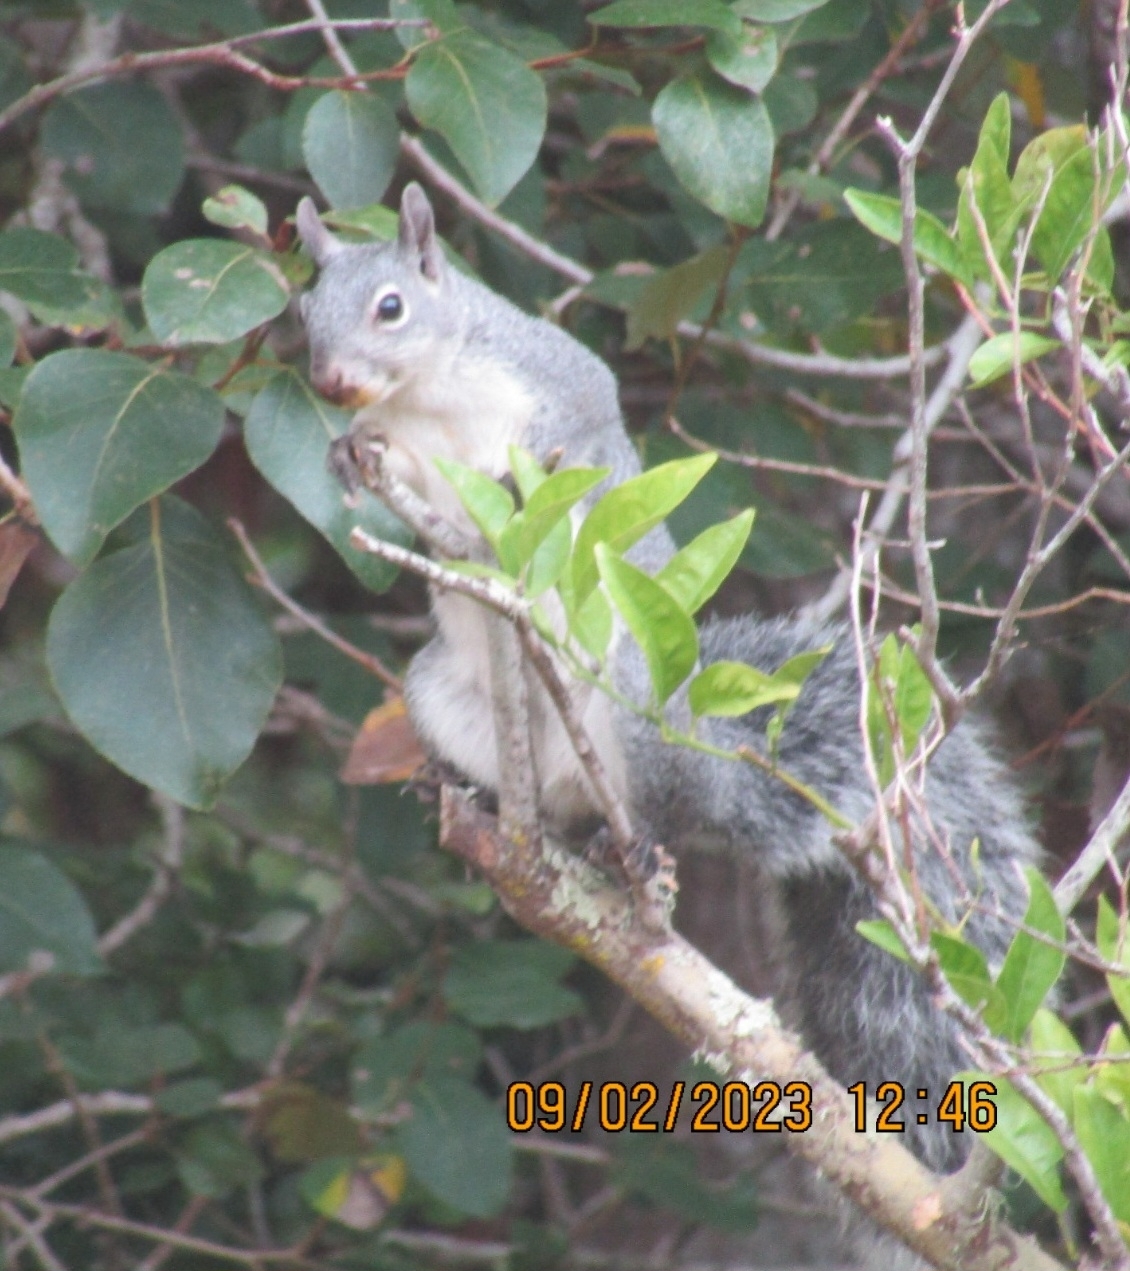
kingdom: Animalia
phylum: Chordata
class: Mammalia
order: Rodentia
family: Sciuridae
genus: Sciurus
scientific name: Sciurus griseus
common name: Western gray squirrel
